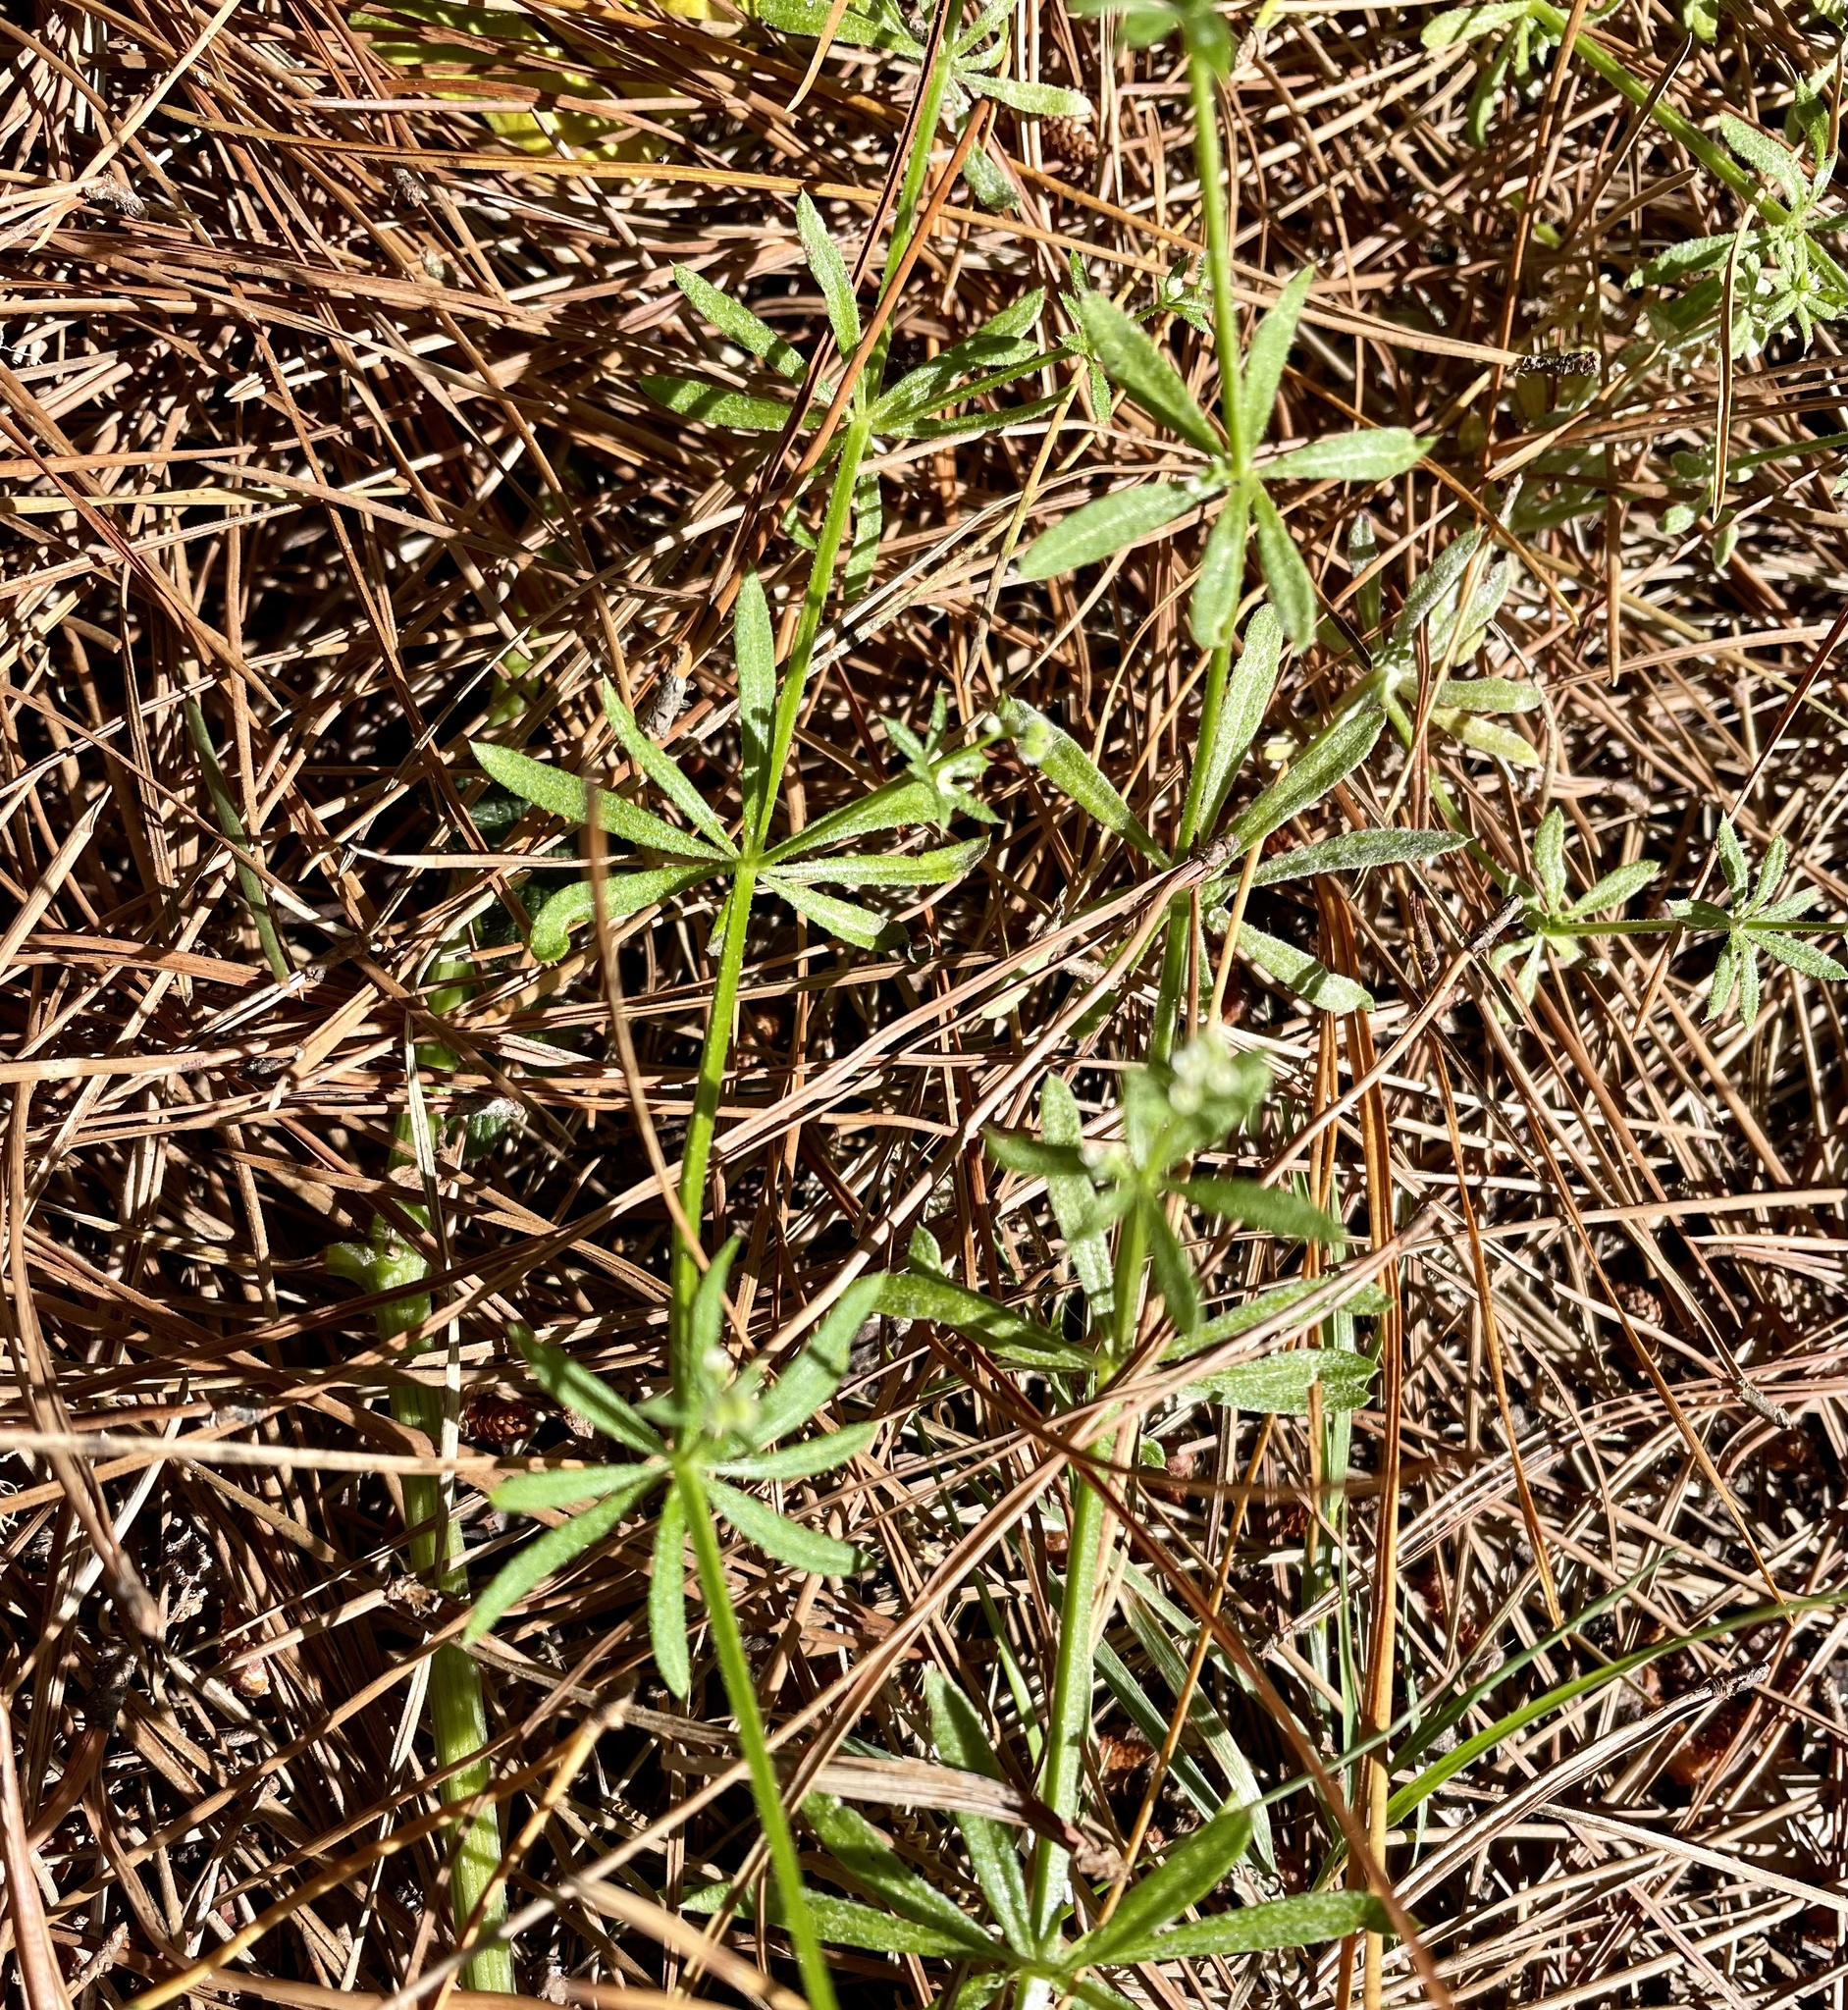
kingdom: Plantae
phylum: Tracheophyta
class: Magnoliopsida
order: Gentianales
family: Rubiaceae
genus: Galium
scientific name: Galium aparine
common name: Cleavers
